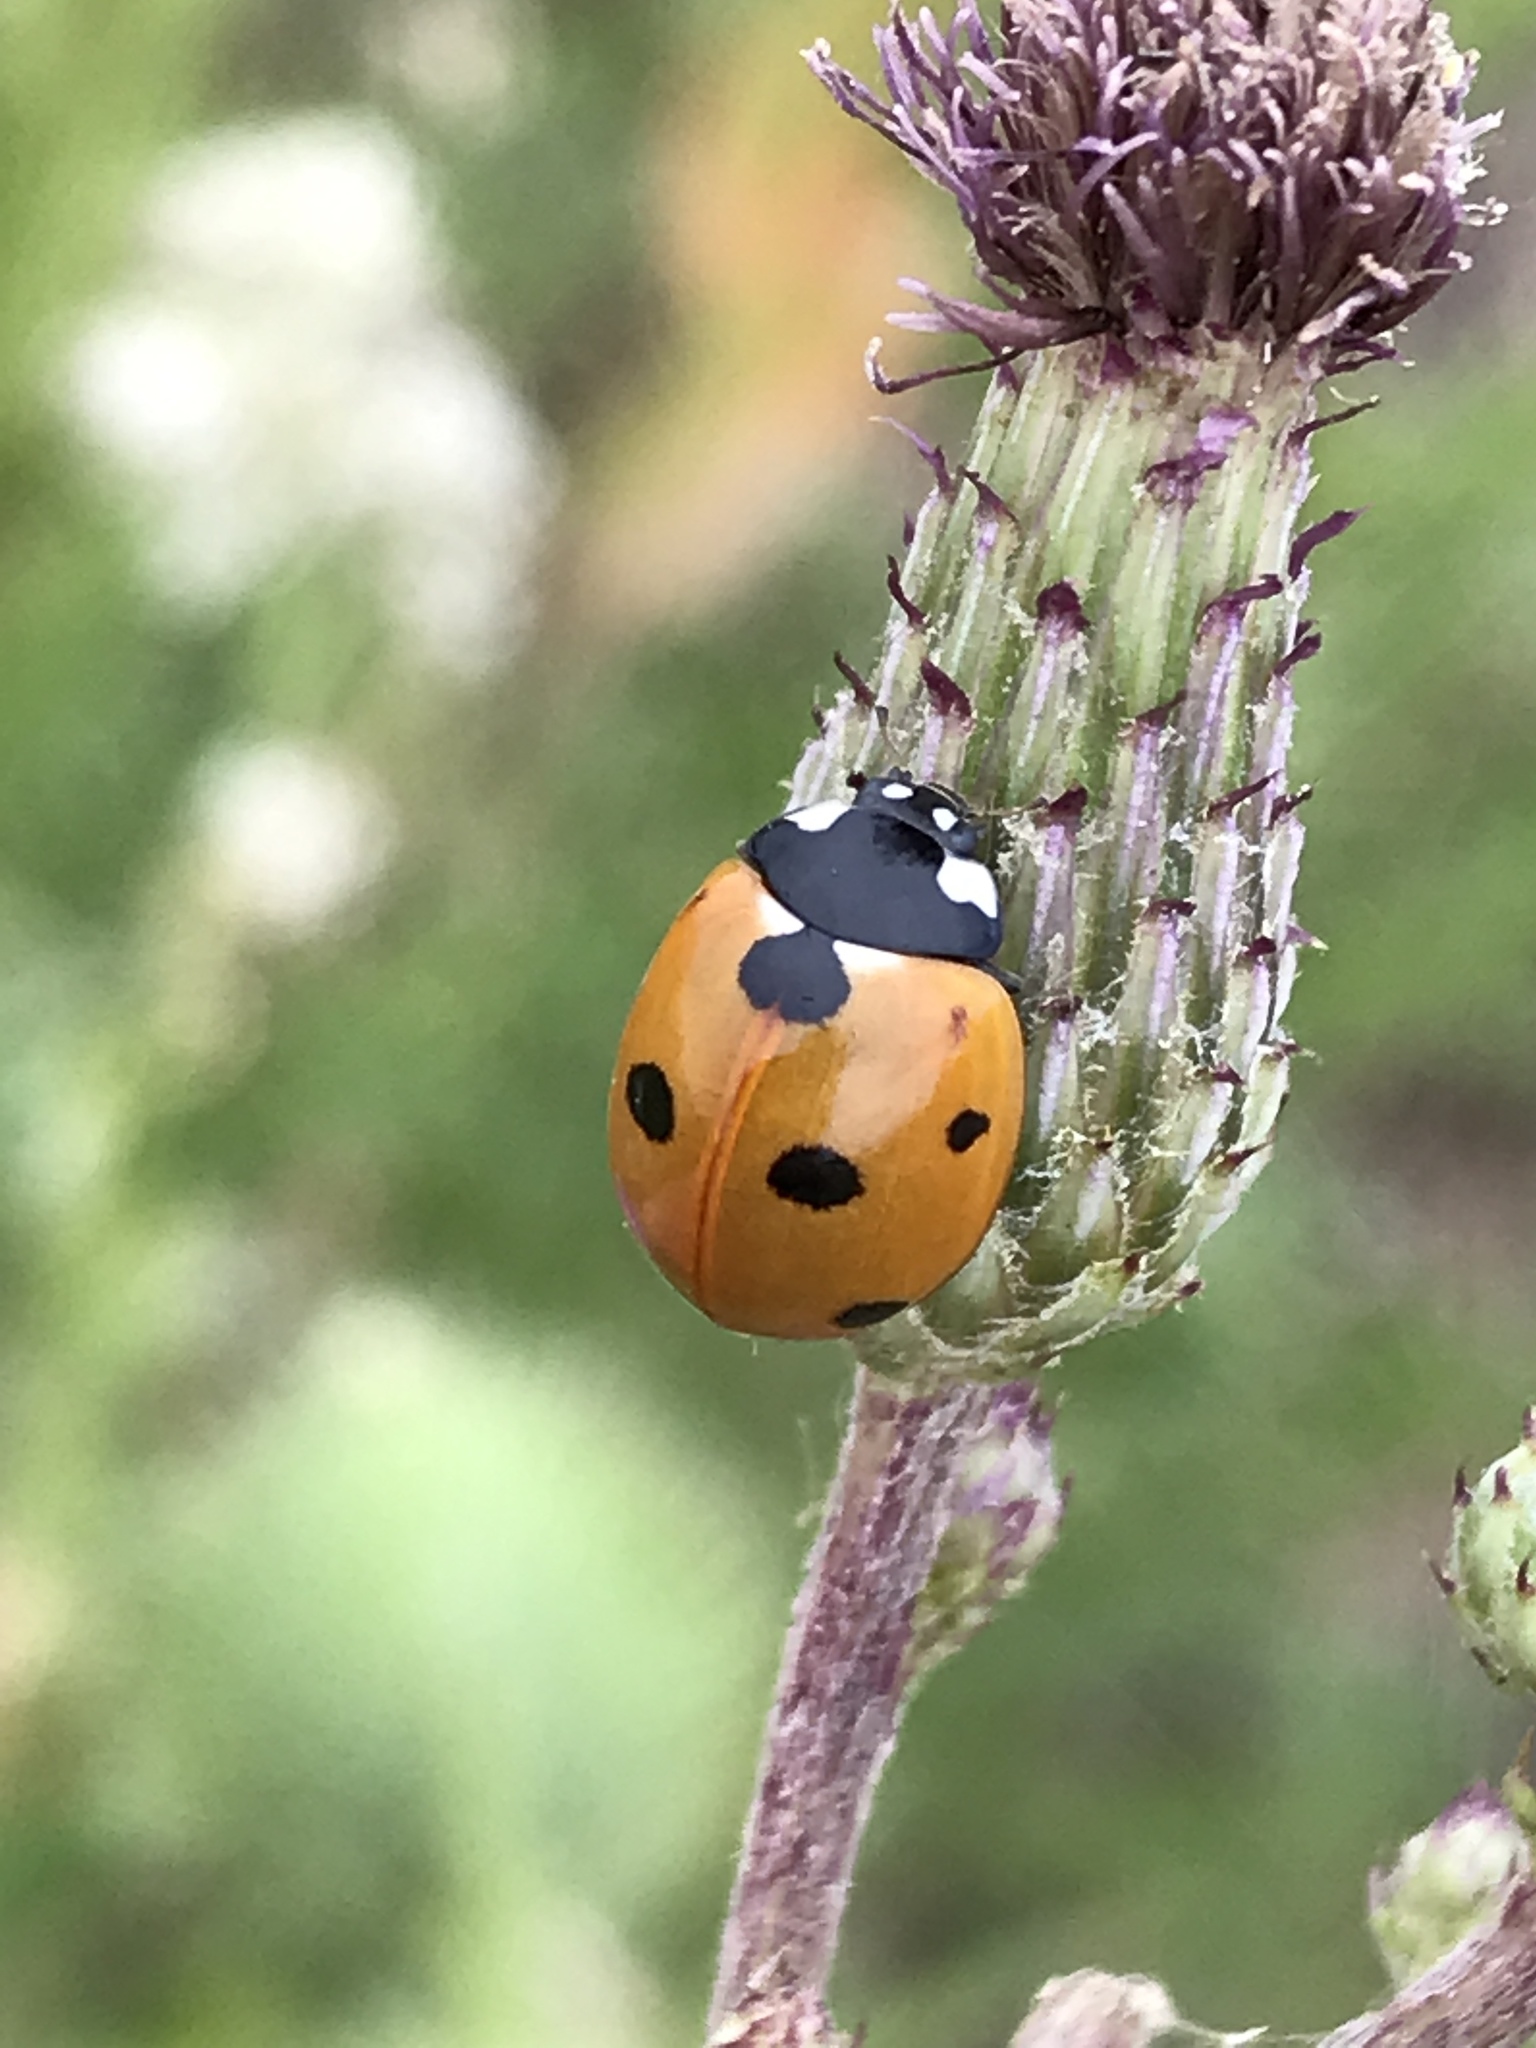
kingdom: Animalia
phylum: Arthropoda
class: Insecta
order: Coleoptera
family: Coccinellidae
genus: Coccinella
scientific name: Coccinella septempunctata
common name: Sevenspotted lady beetle
